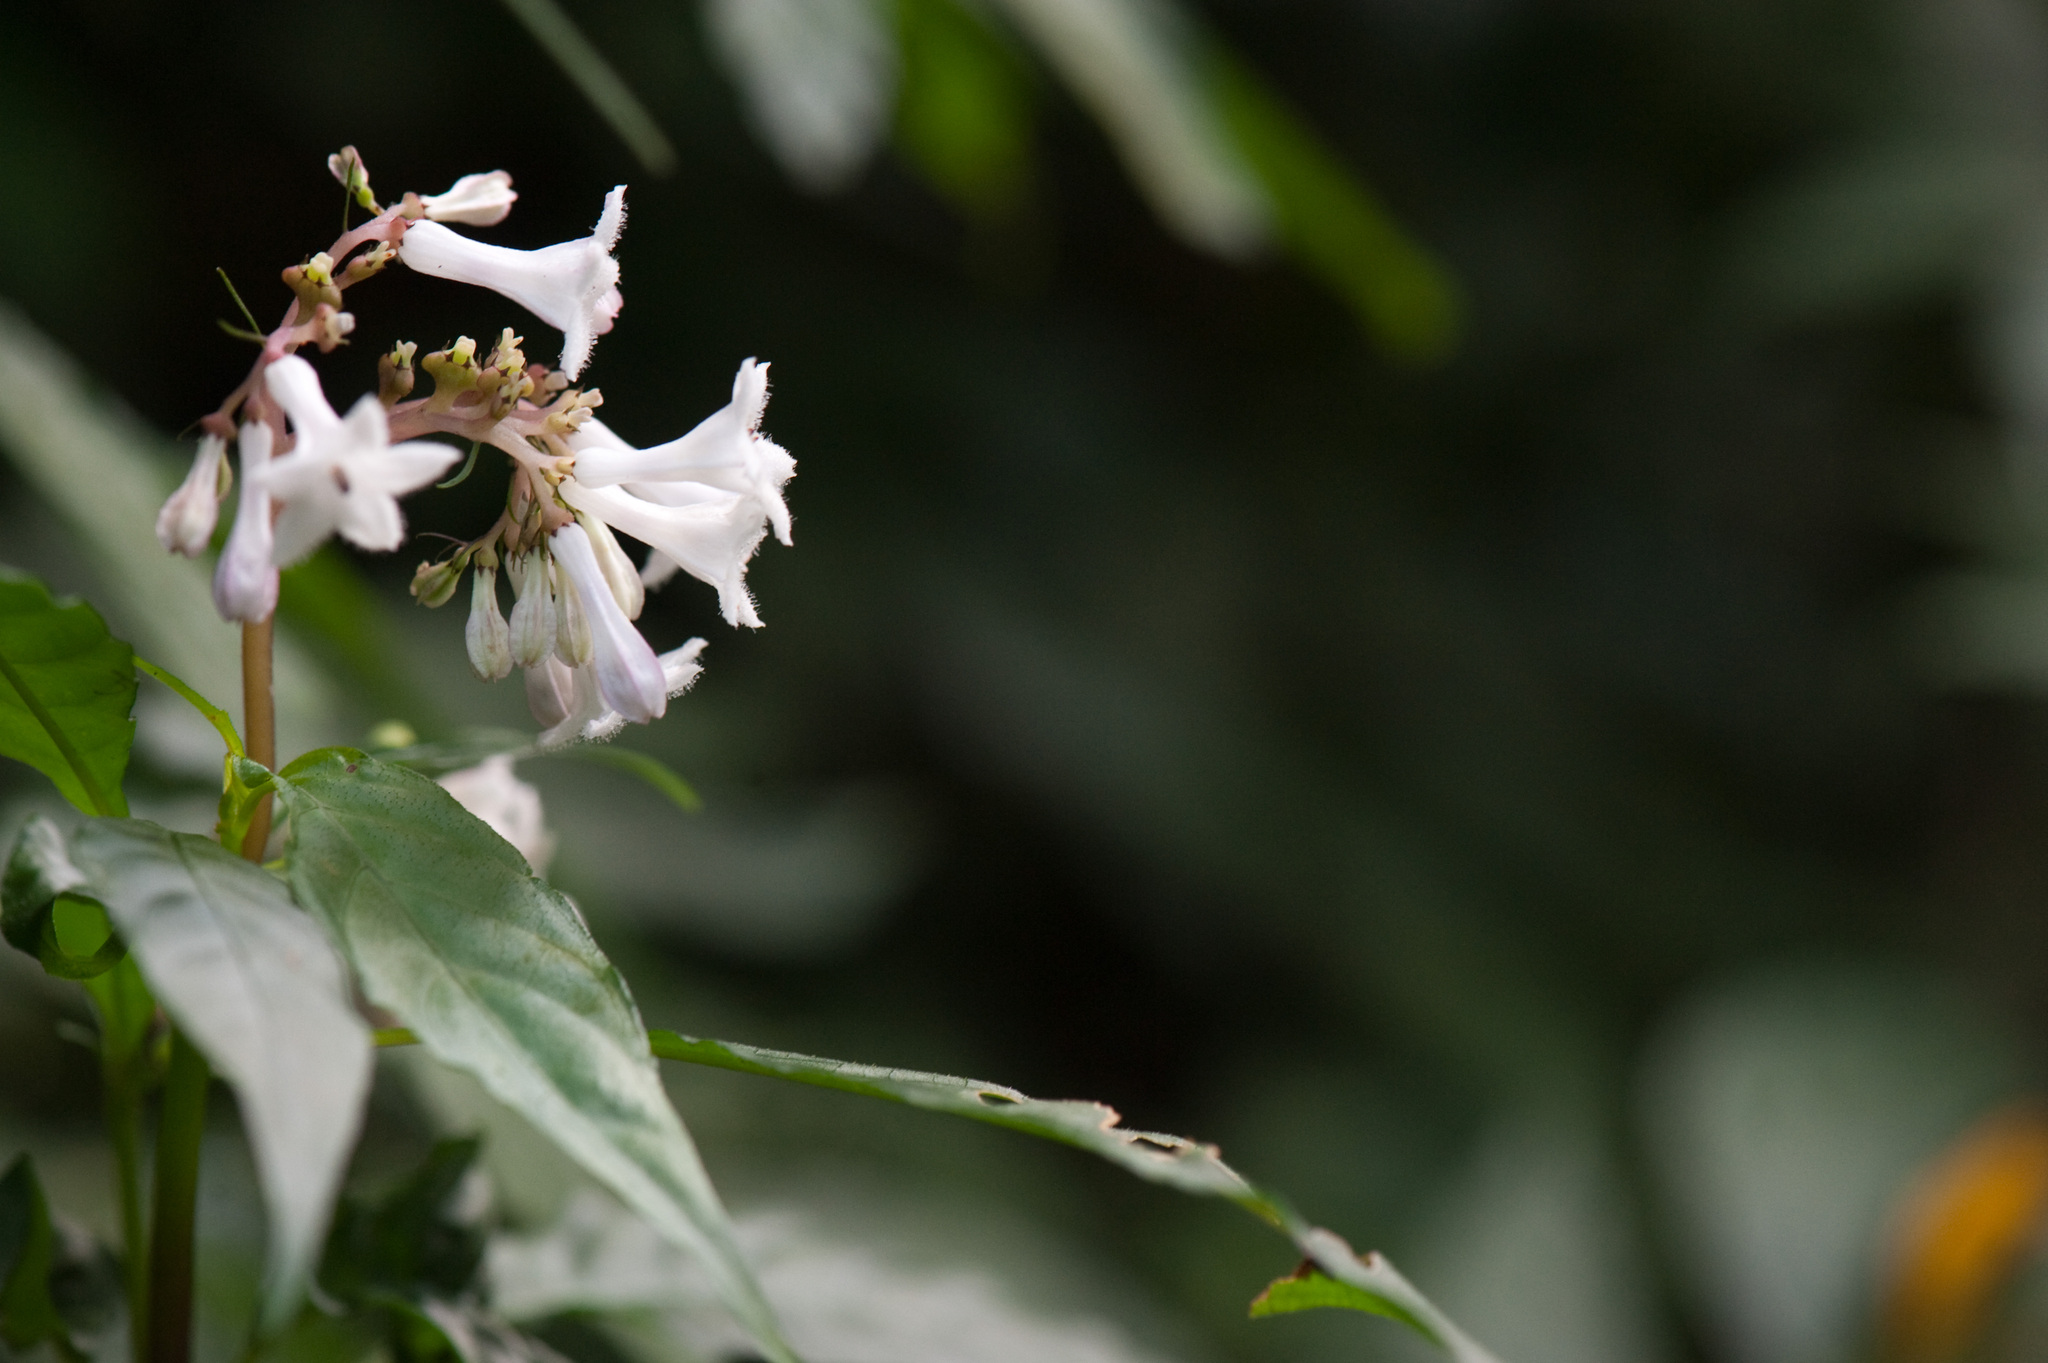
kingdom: Plantae
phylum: Tracheophyta
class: Magnoliopsida
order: Gentianales
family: Rubiaceae
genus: Ophiorrhiza
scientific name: Ophiorrhiza japonica
